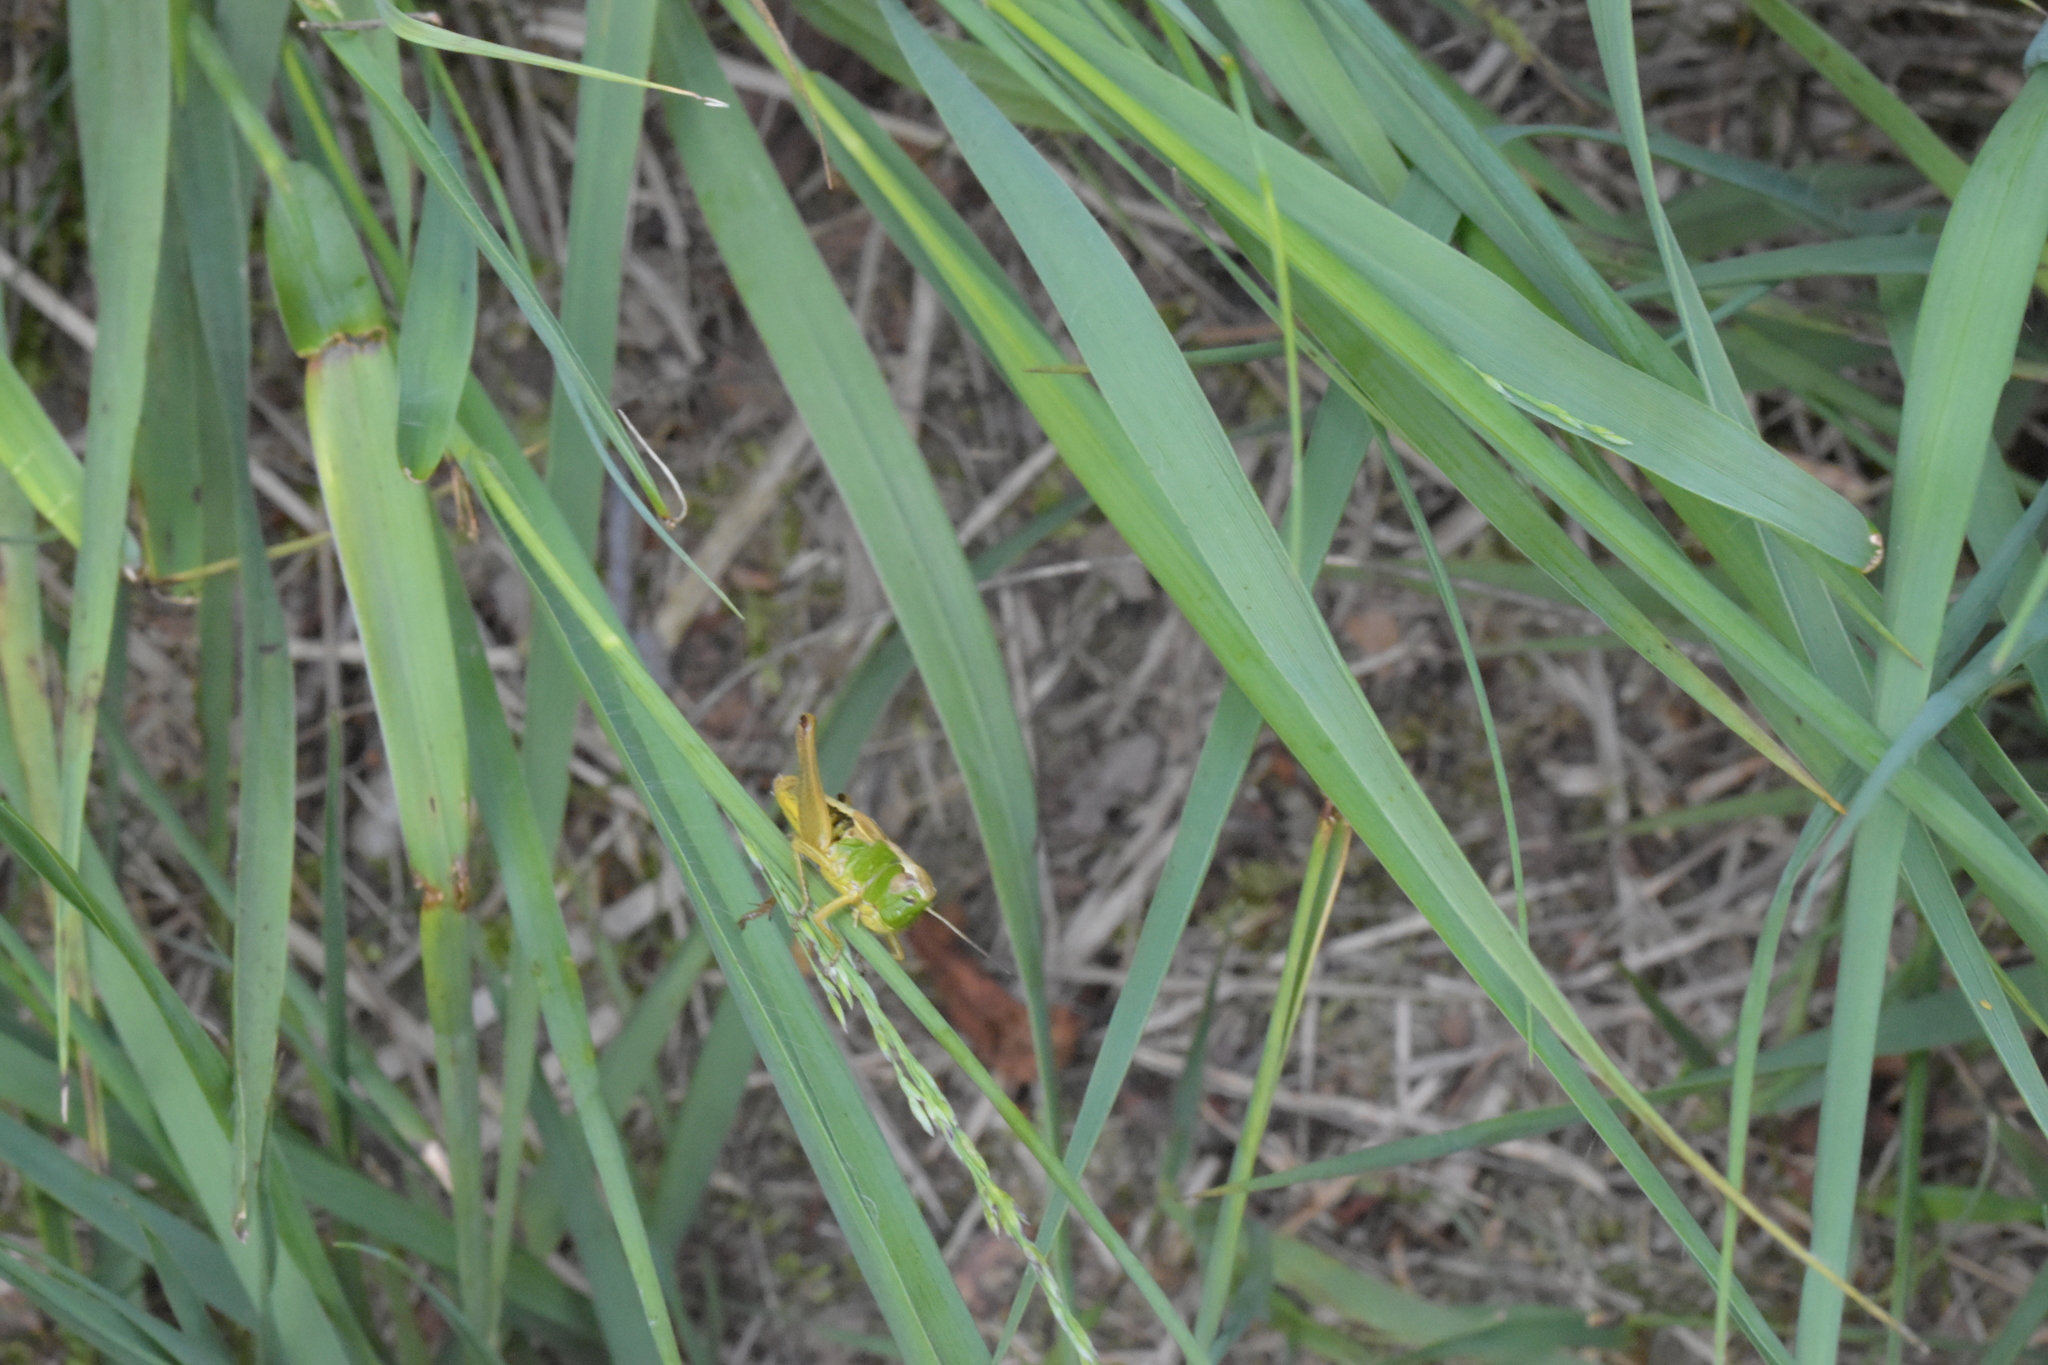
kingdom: Animalia
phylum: Arthropoda
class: Insecta
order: Orthoptera
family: Acrididae
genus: Pseudochorthippus
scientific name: Pseudochorthippus parallelus
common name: Meadow grasshopper
